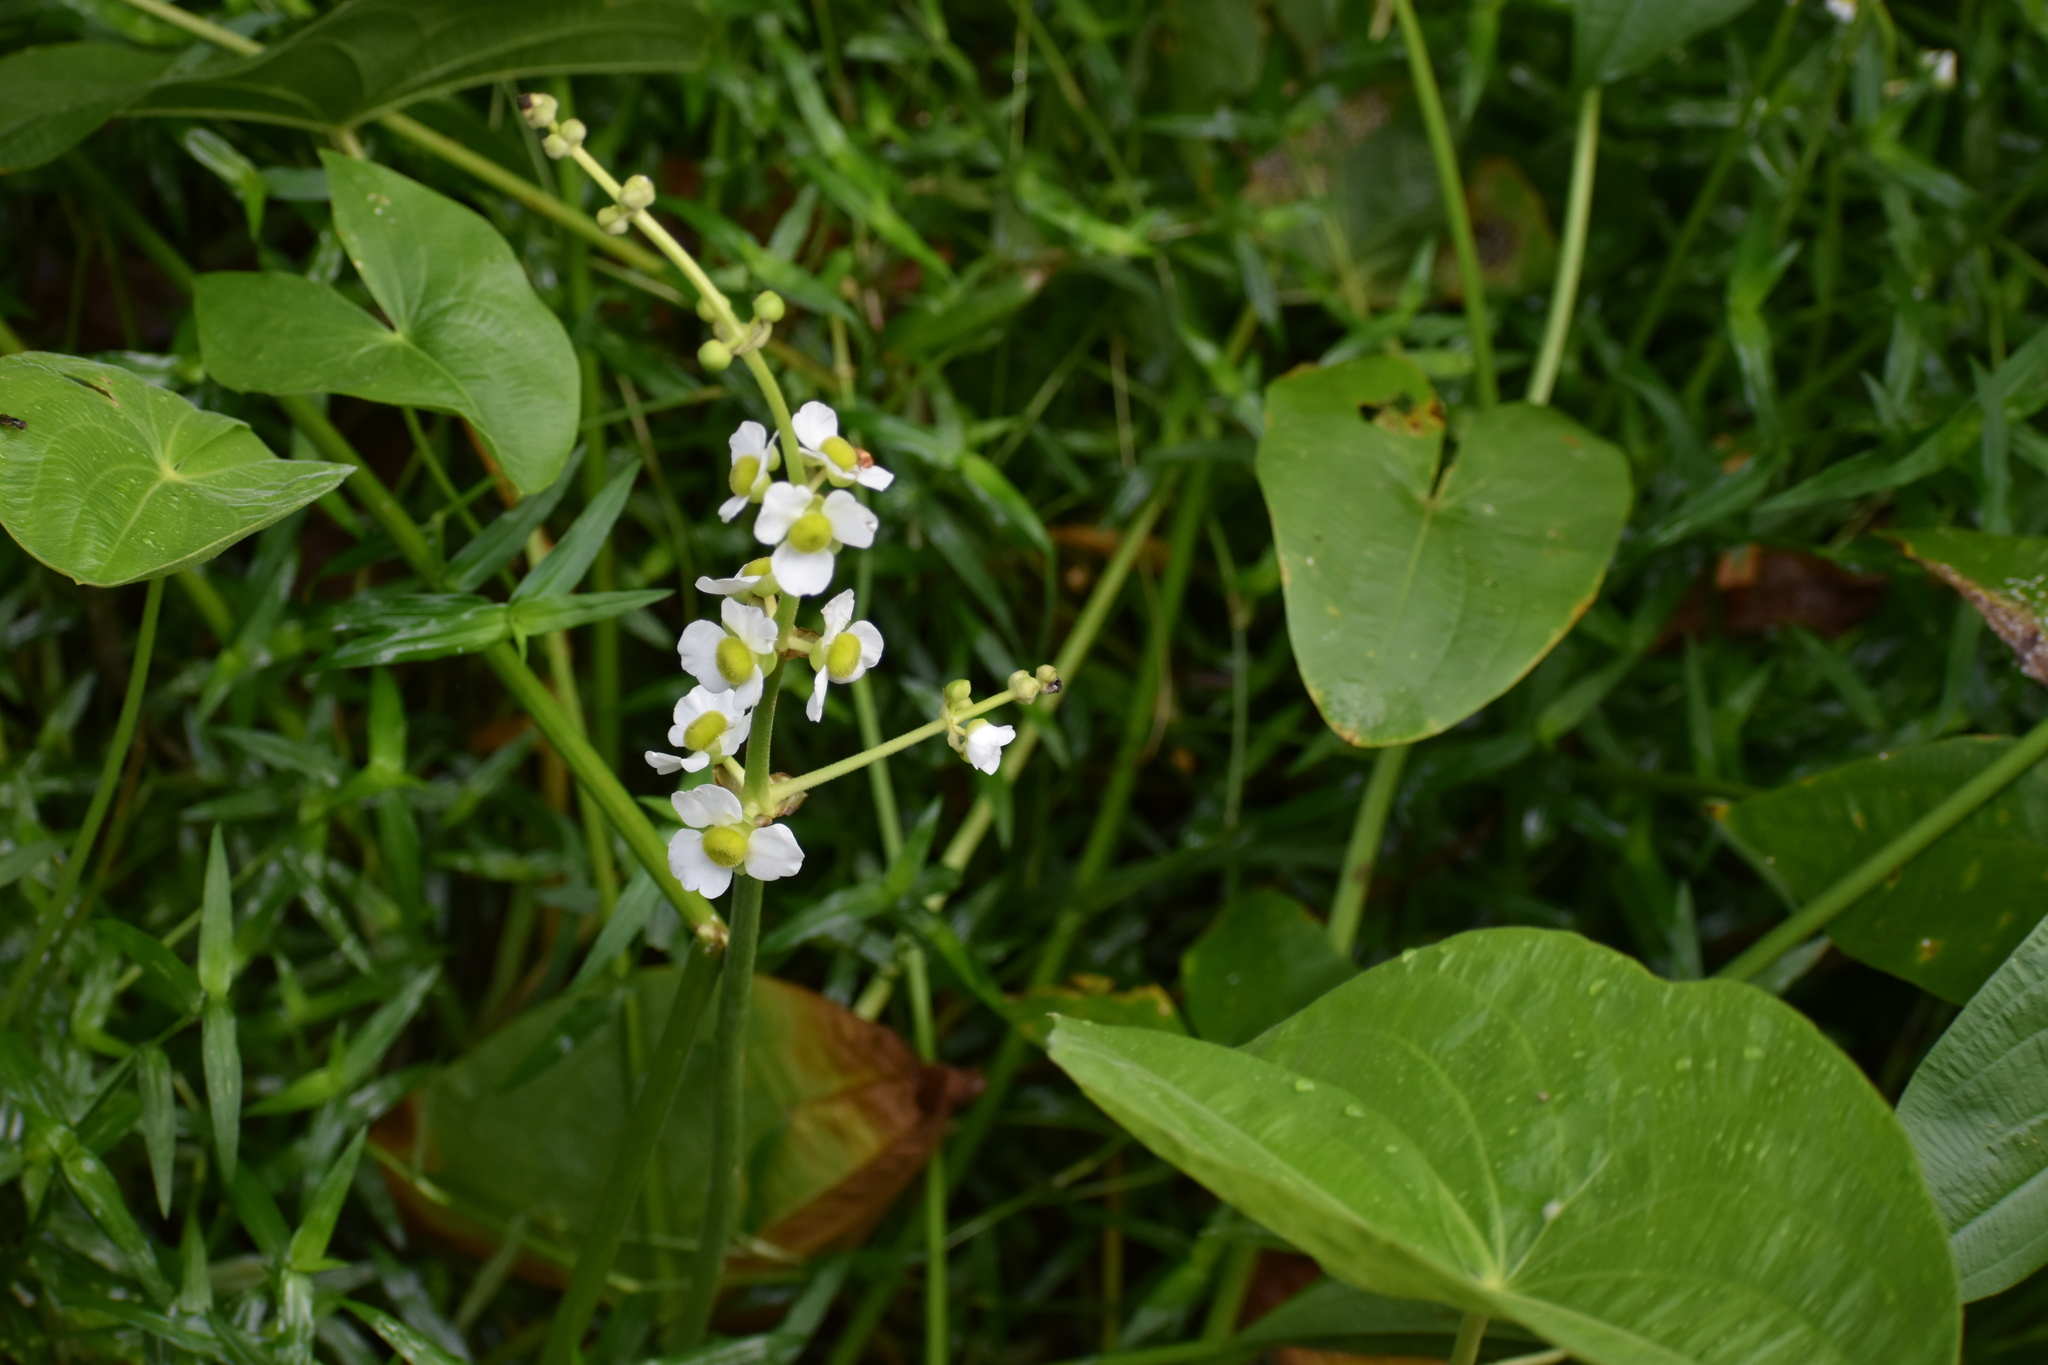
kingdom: Plantae
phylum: Tracheophyta
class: Liliopsida
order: Alismatales
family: Alismataceae
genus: Sagittaria
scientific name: Sagittaria latifolia
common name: Duck-potato
